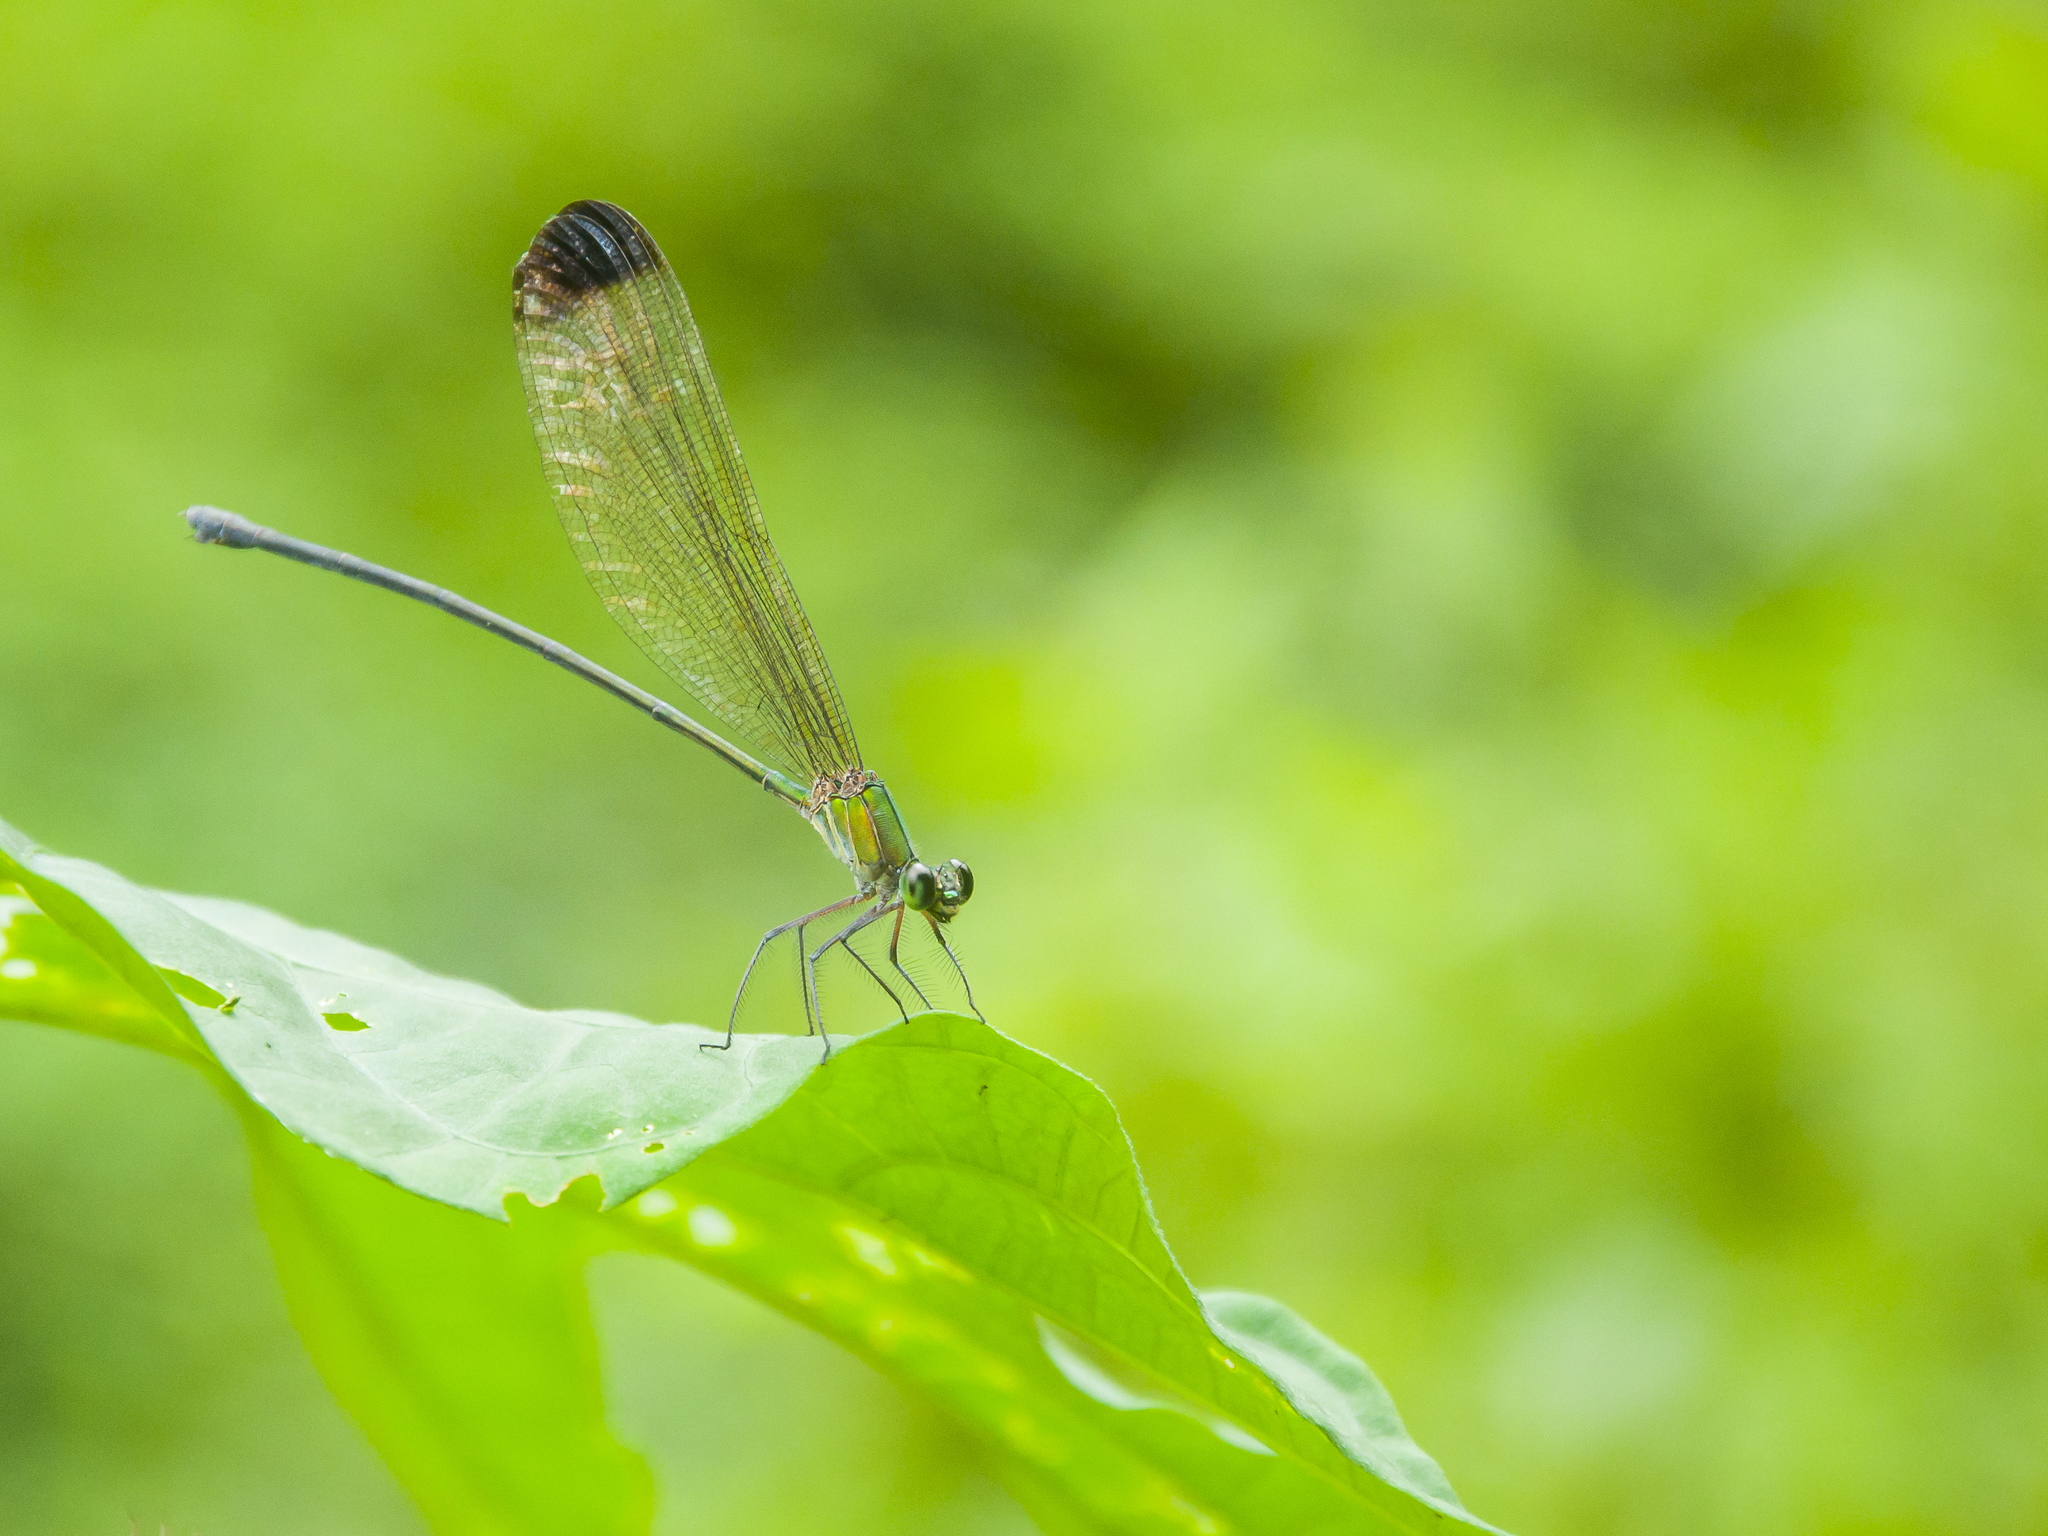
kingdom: Animalia
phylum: Arthropoda
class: Insecta
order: Odonata
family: Calopterygidae
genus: Vestalis
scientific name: Vestalis apicalis
